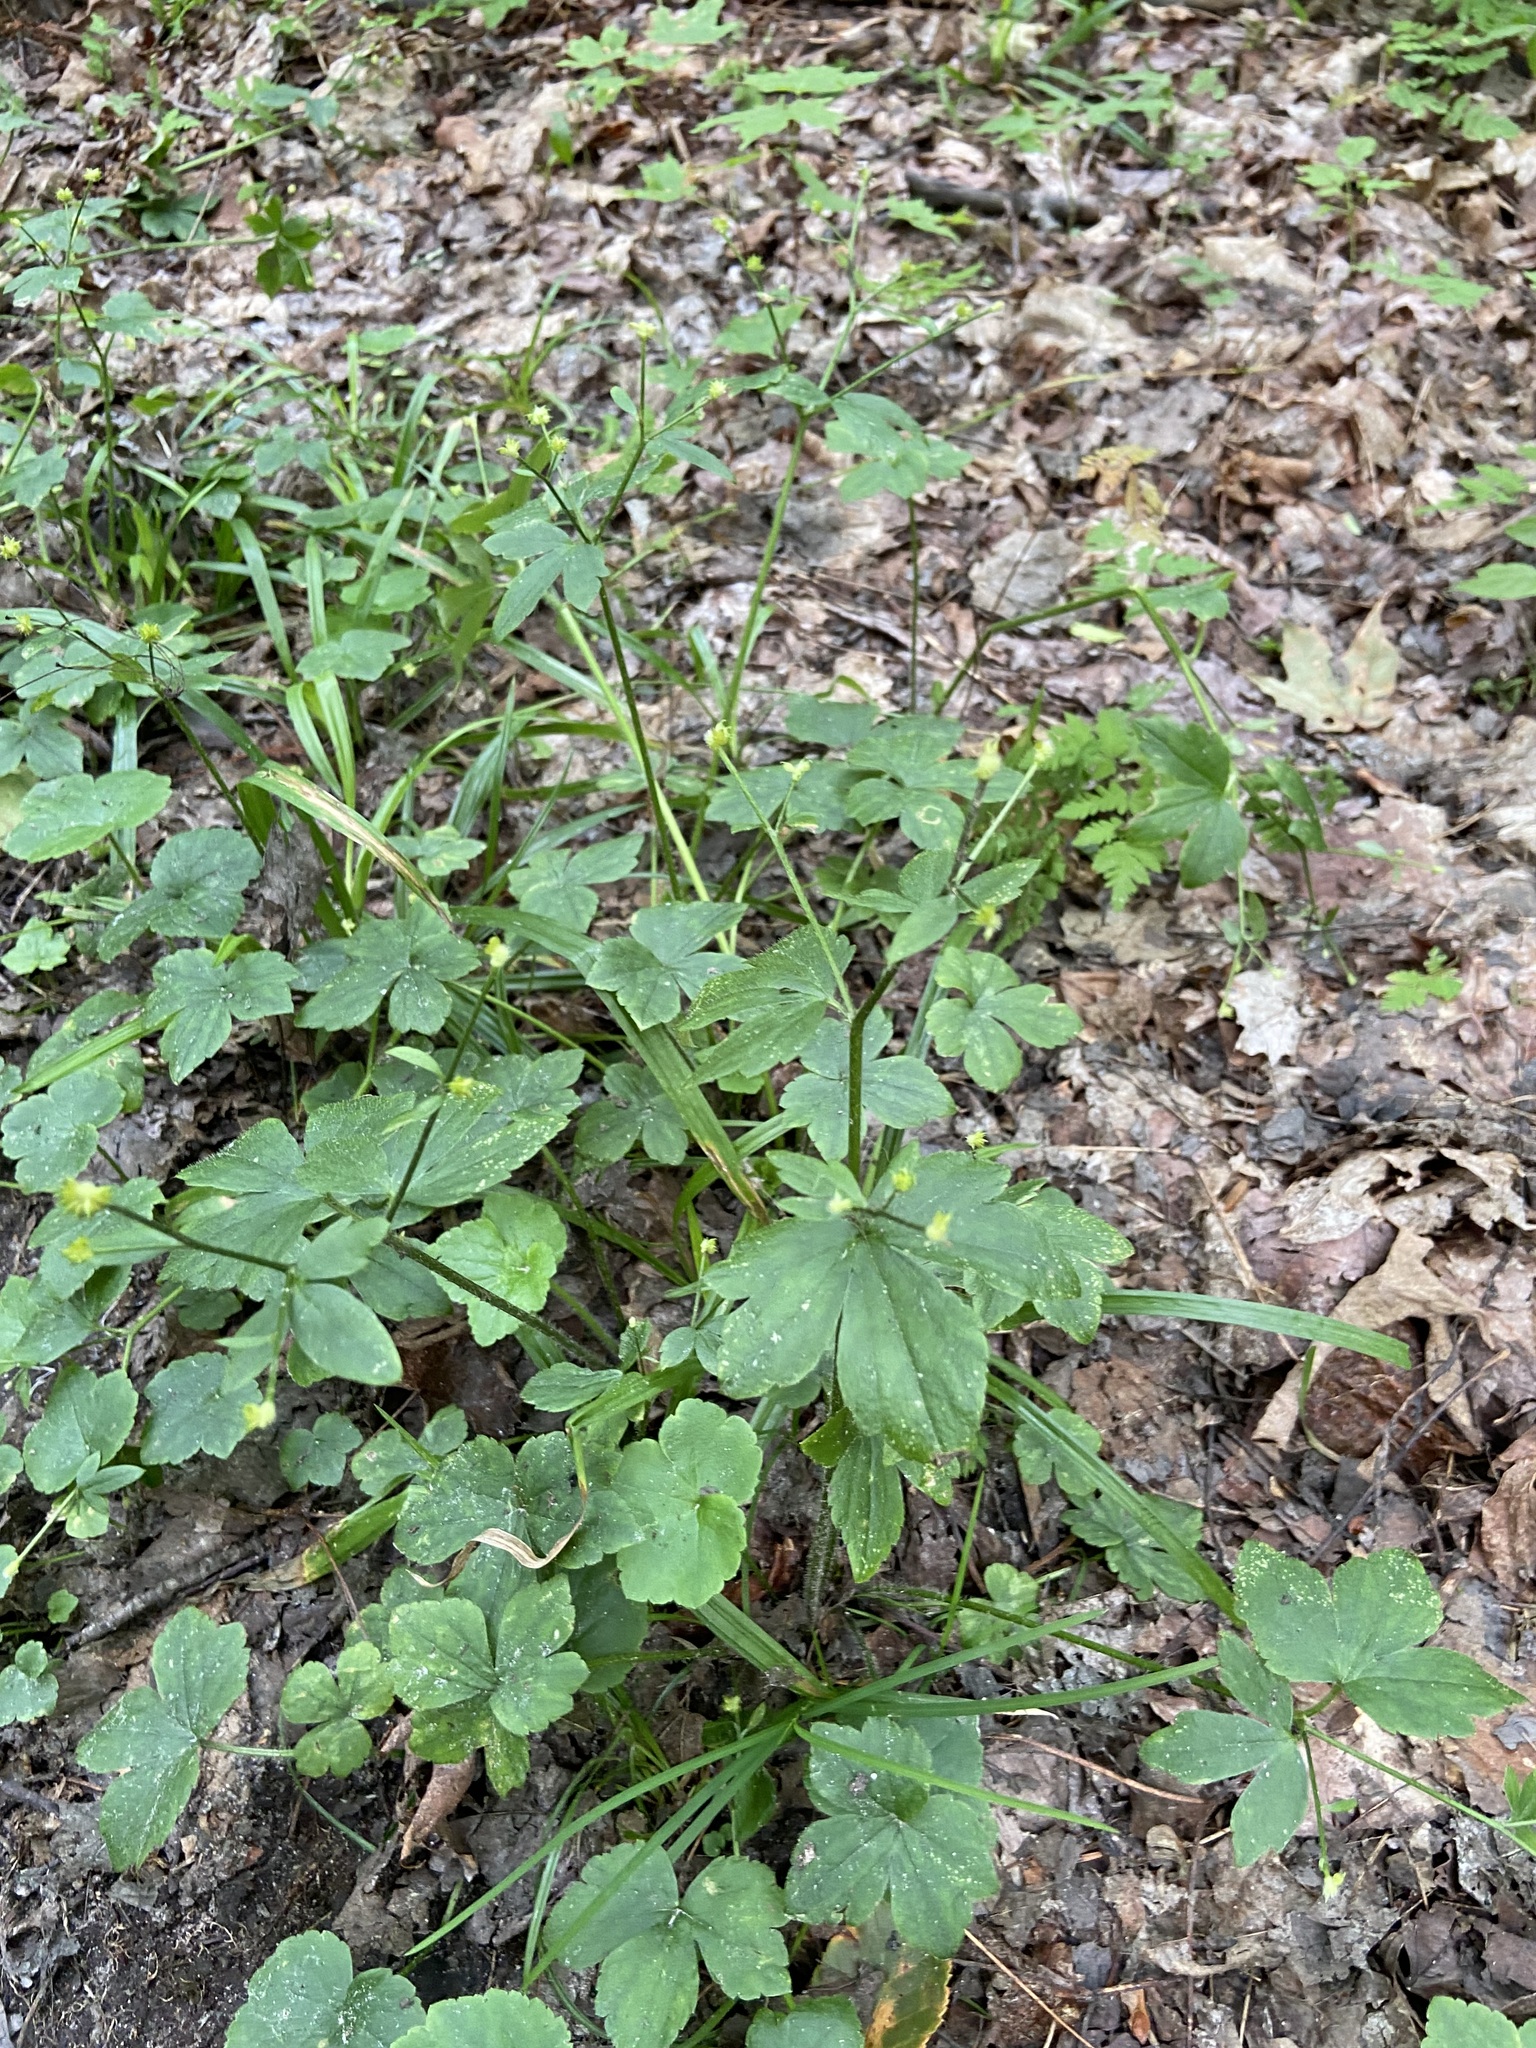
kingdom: Plantae
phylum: Tracheophyta
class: Magnoliopsida
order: Ranunculales
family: Ranunculaceae
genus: Ranunculus
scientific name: Ranunculus recurvatus
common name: Blisterwort
